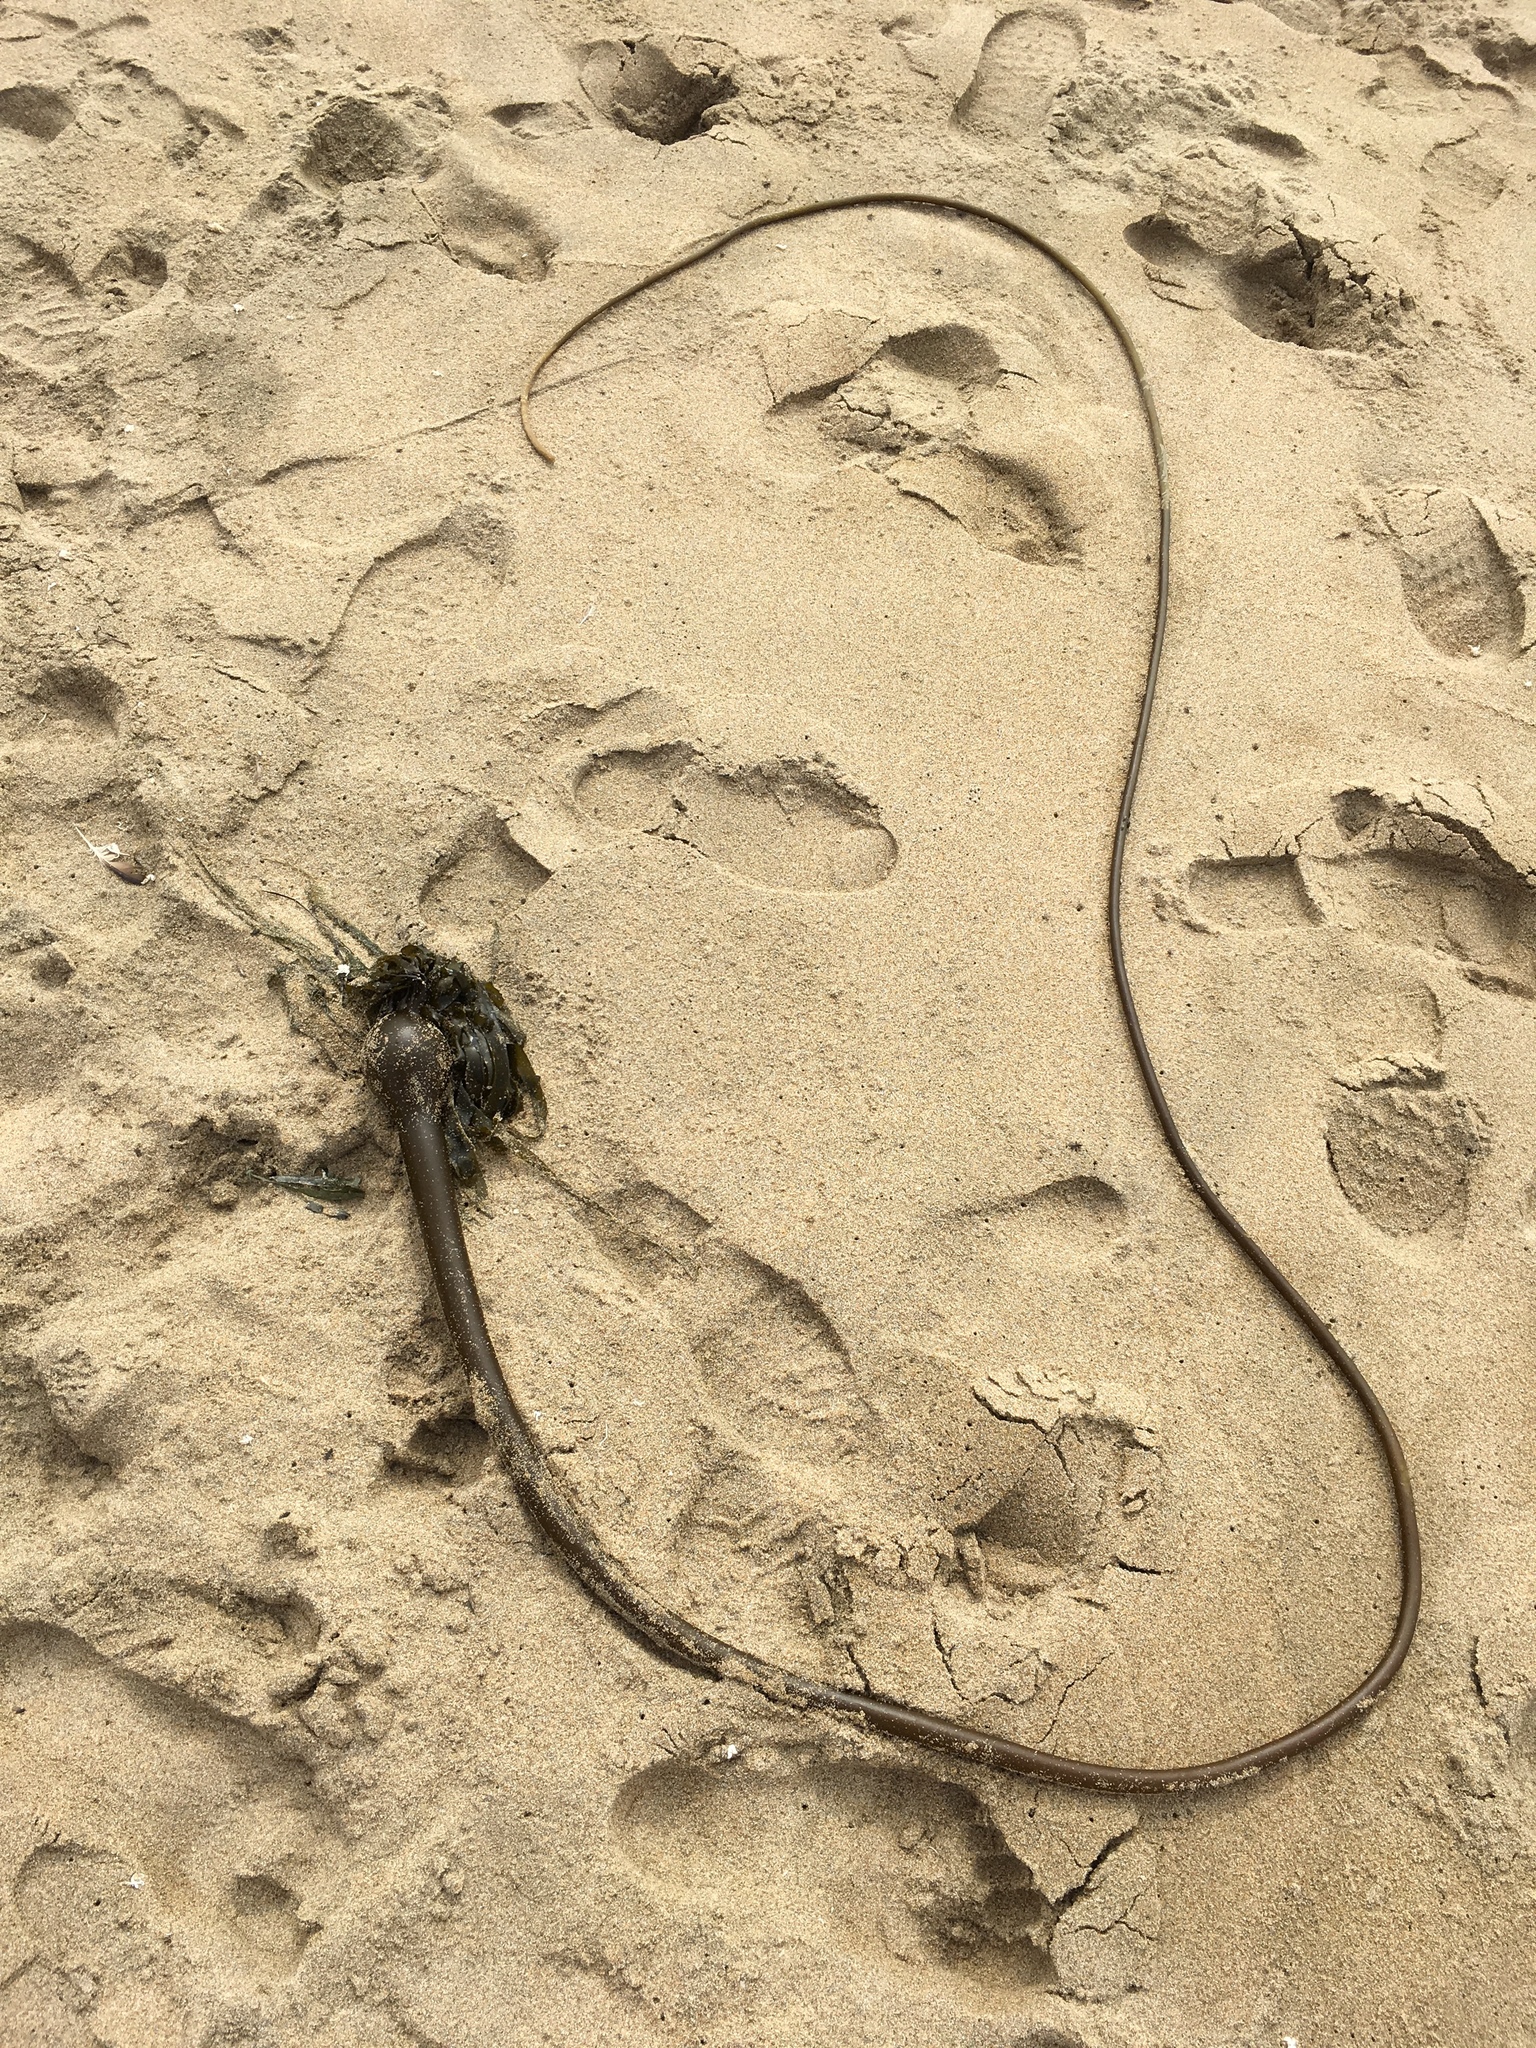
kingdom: Chromista
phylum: Ochrophyta
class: Phaeophyceae
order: Laminariales
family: Laminariaceae
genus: Nereocystis
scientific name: Nereocystis luetkeana
